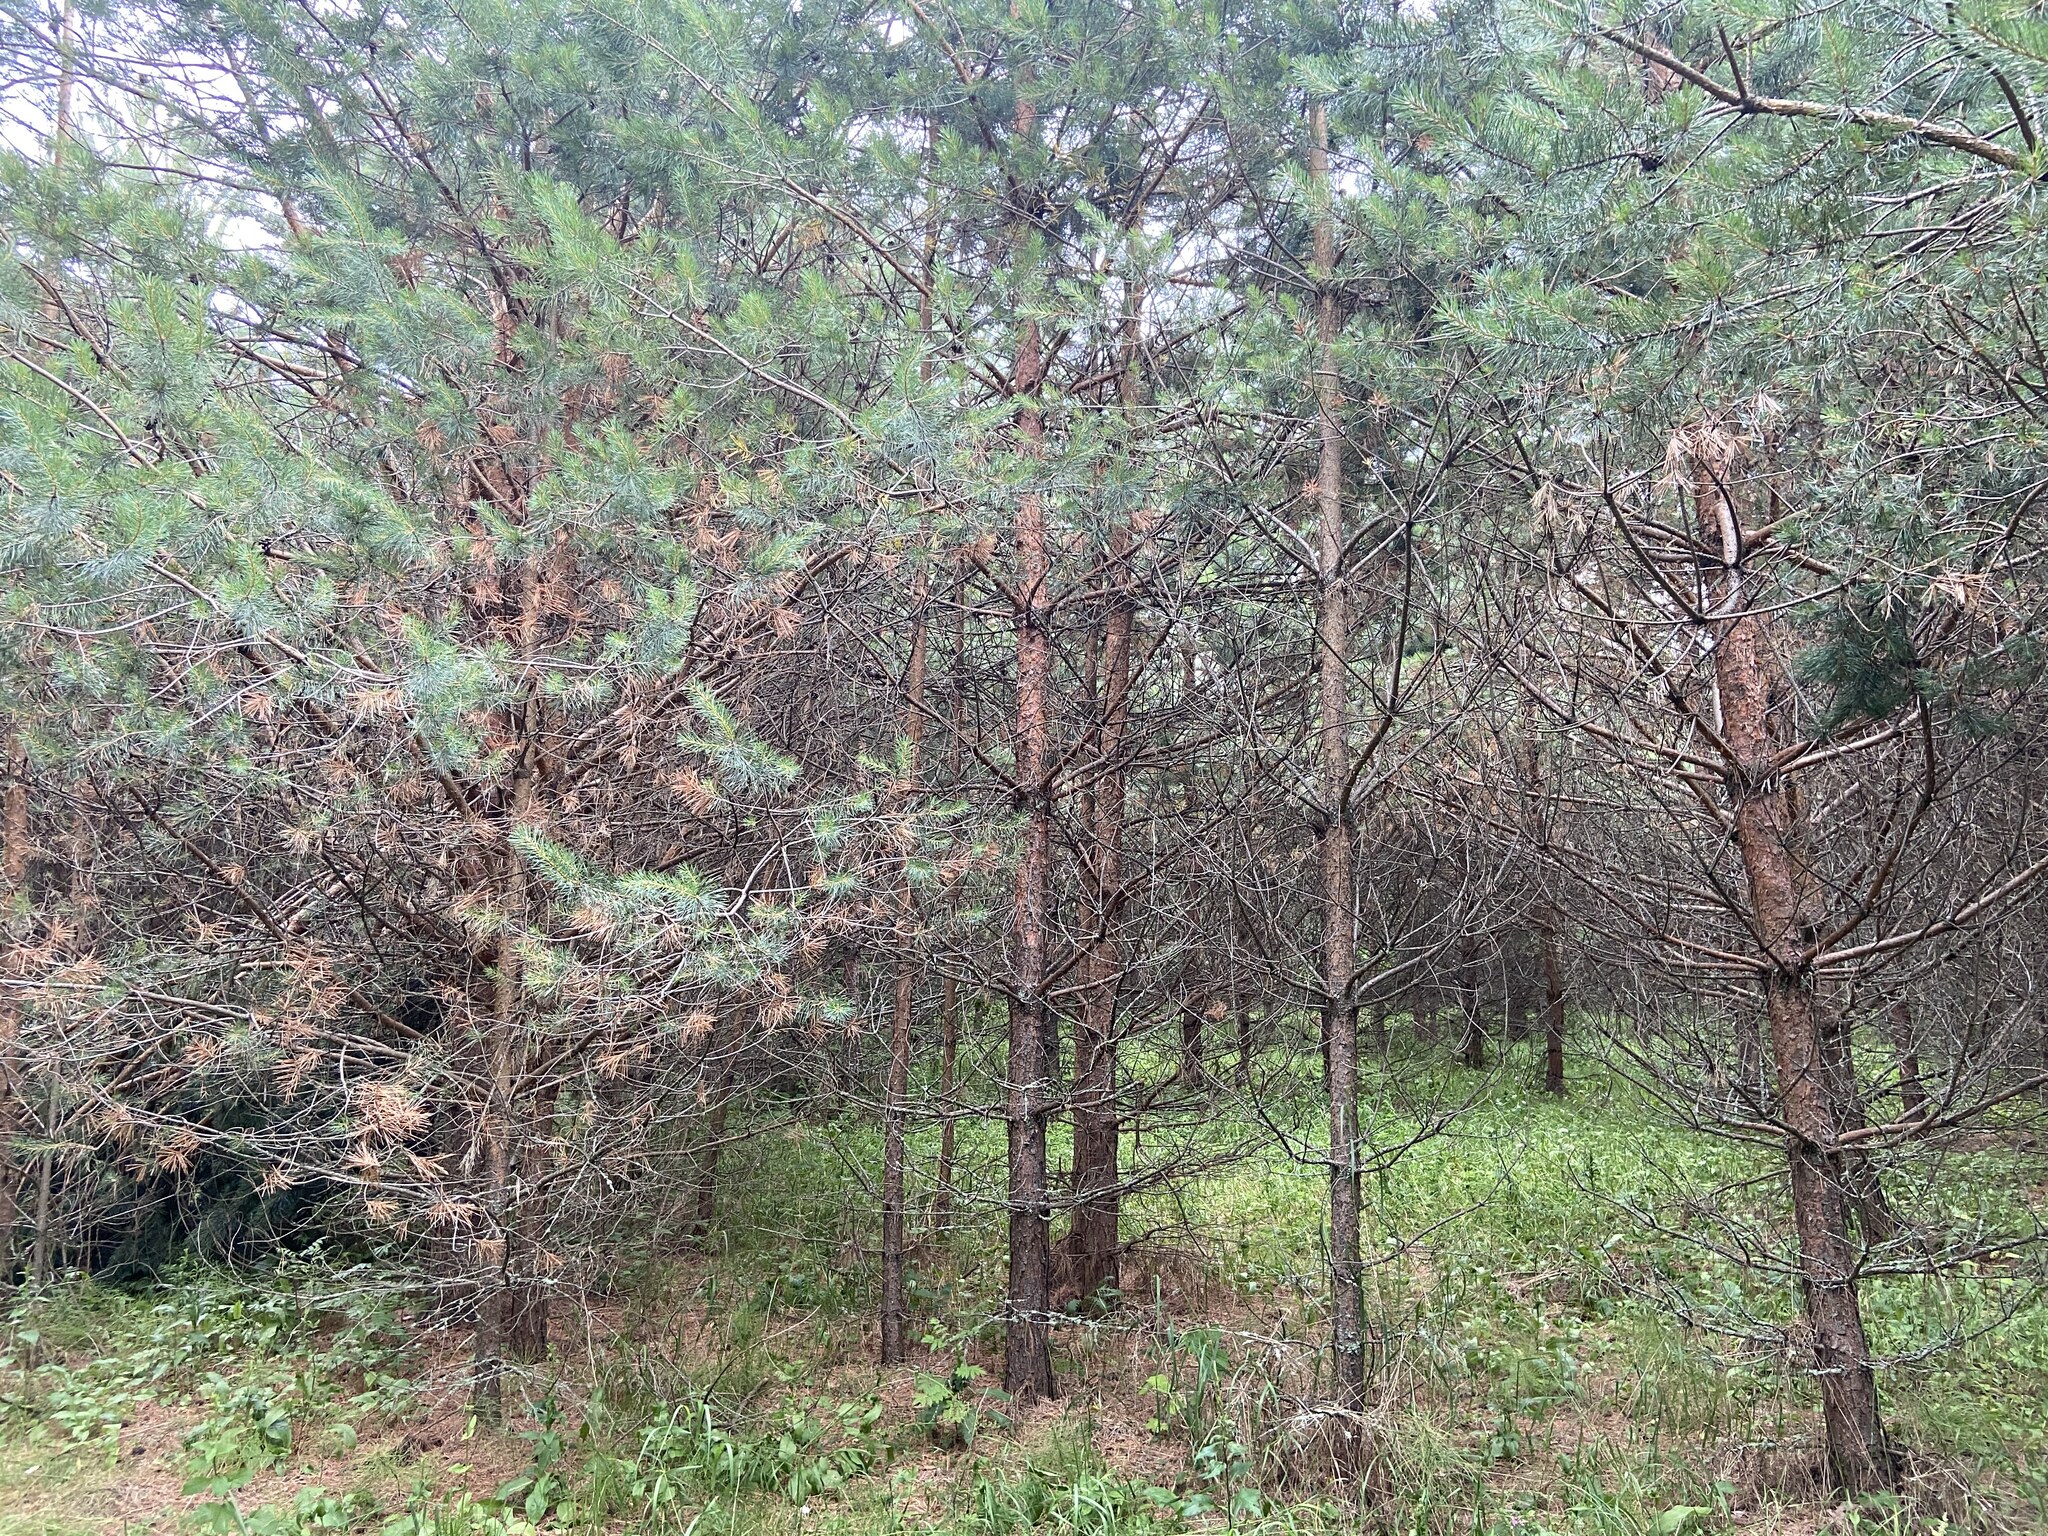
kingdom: Plantae
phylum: Tracheophyta
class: Pinopsida
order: Pinales
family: Pinaceae
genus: Pinus
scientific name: Pinus sylvestris
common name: Scots pine
